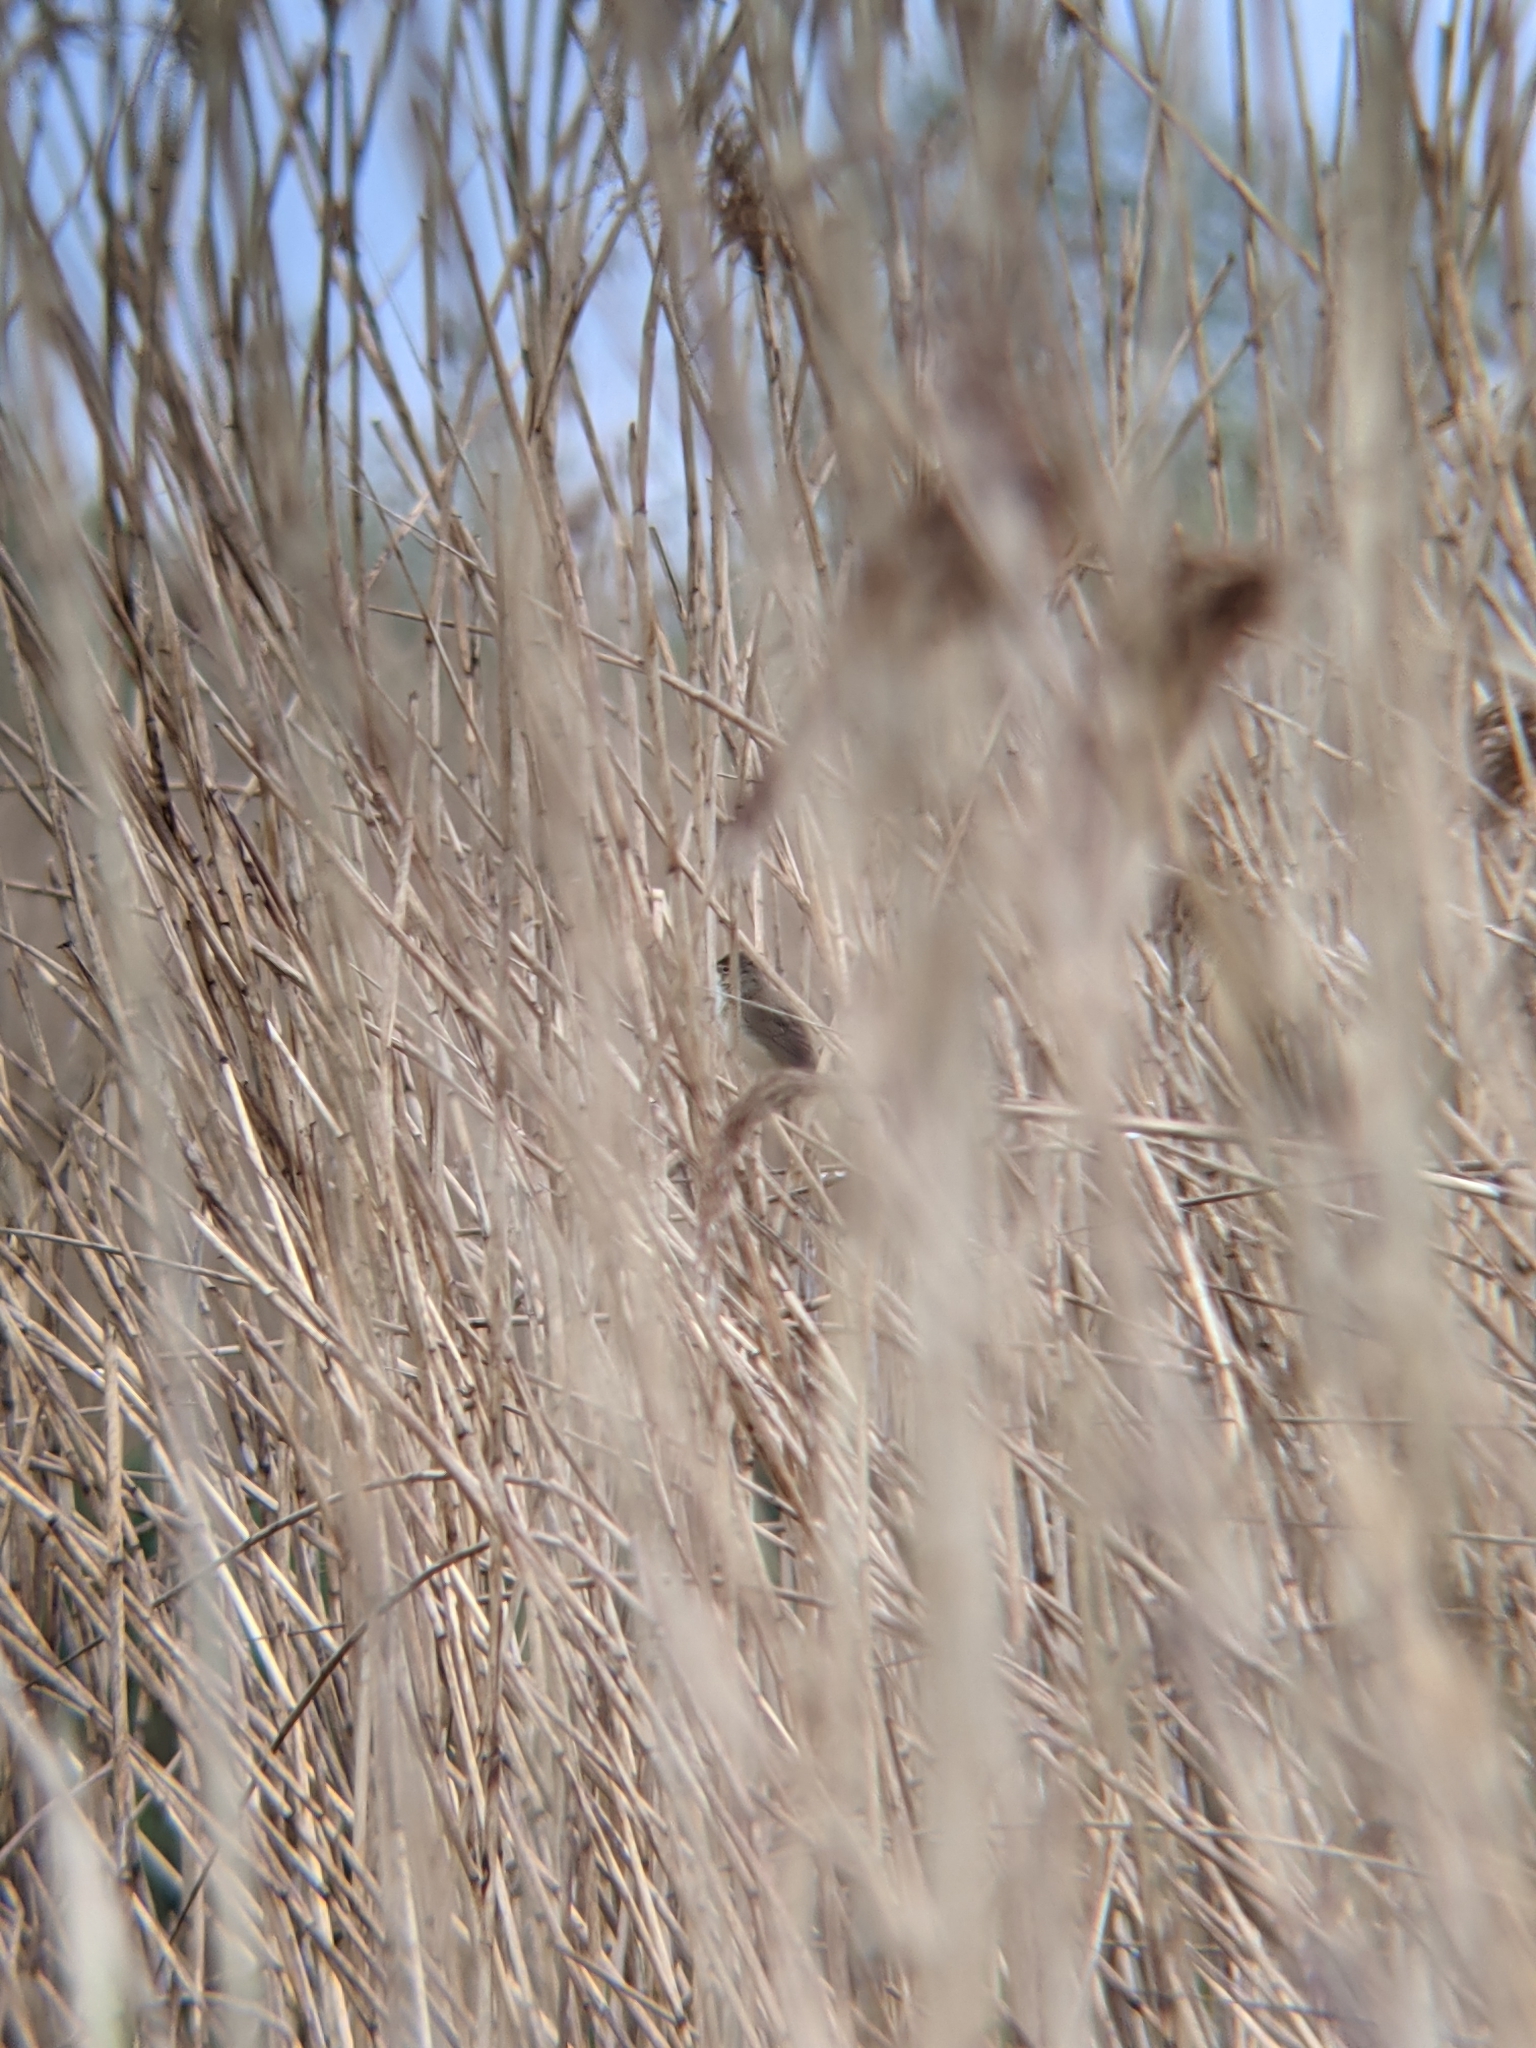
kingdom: Animalia
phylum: Chordata
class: Aves
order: Passeriformes
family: Acrocephalidae
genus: Acrocephalus
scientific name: Acrocephalus scirpaceus
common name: Eurasian reed warbler
